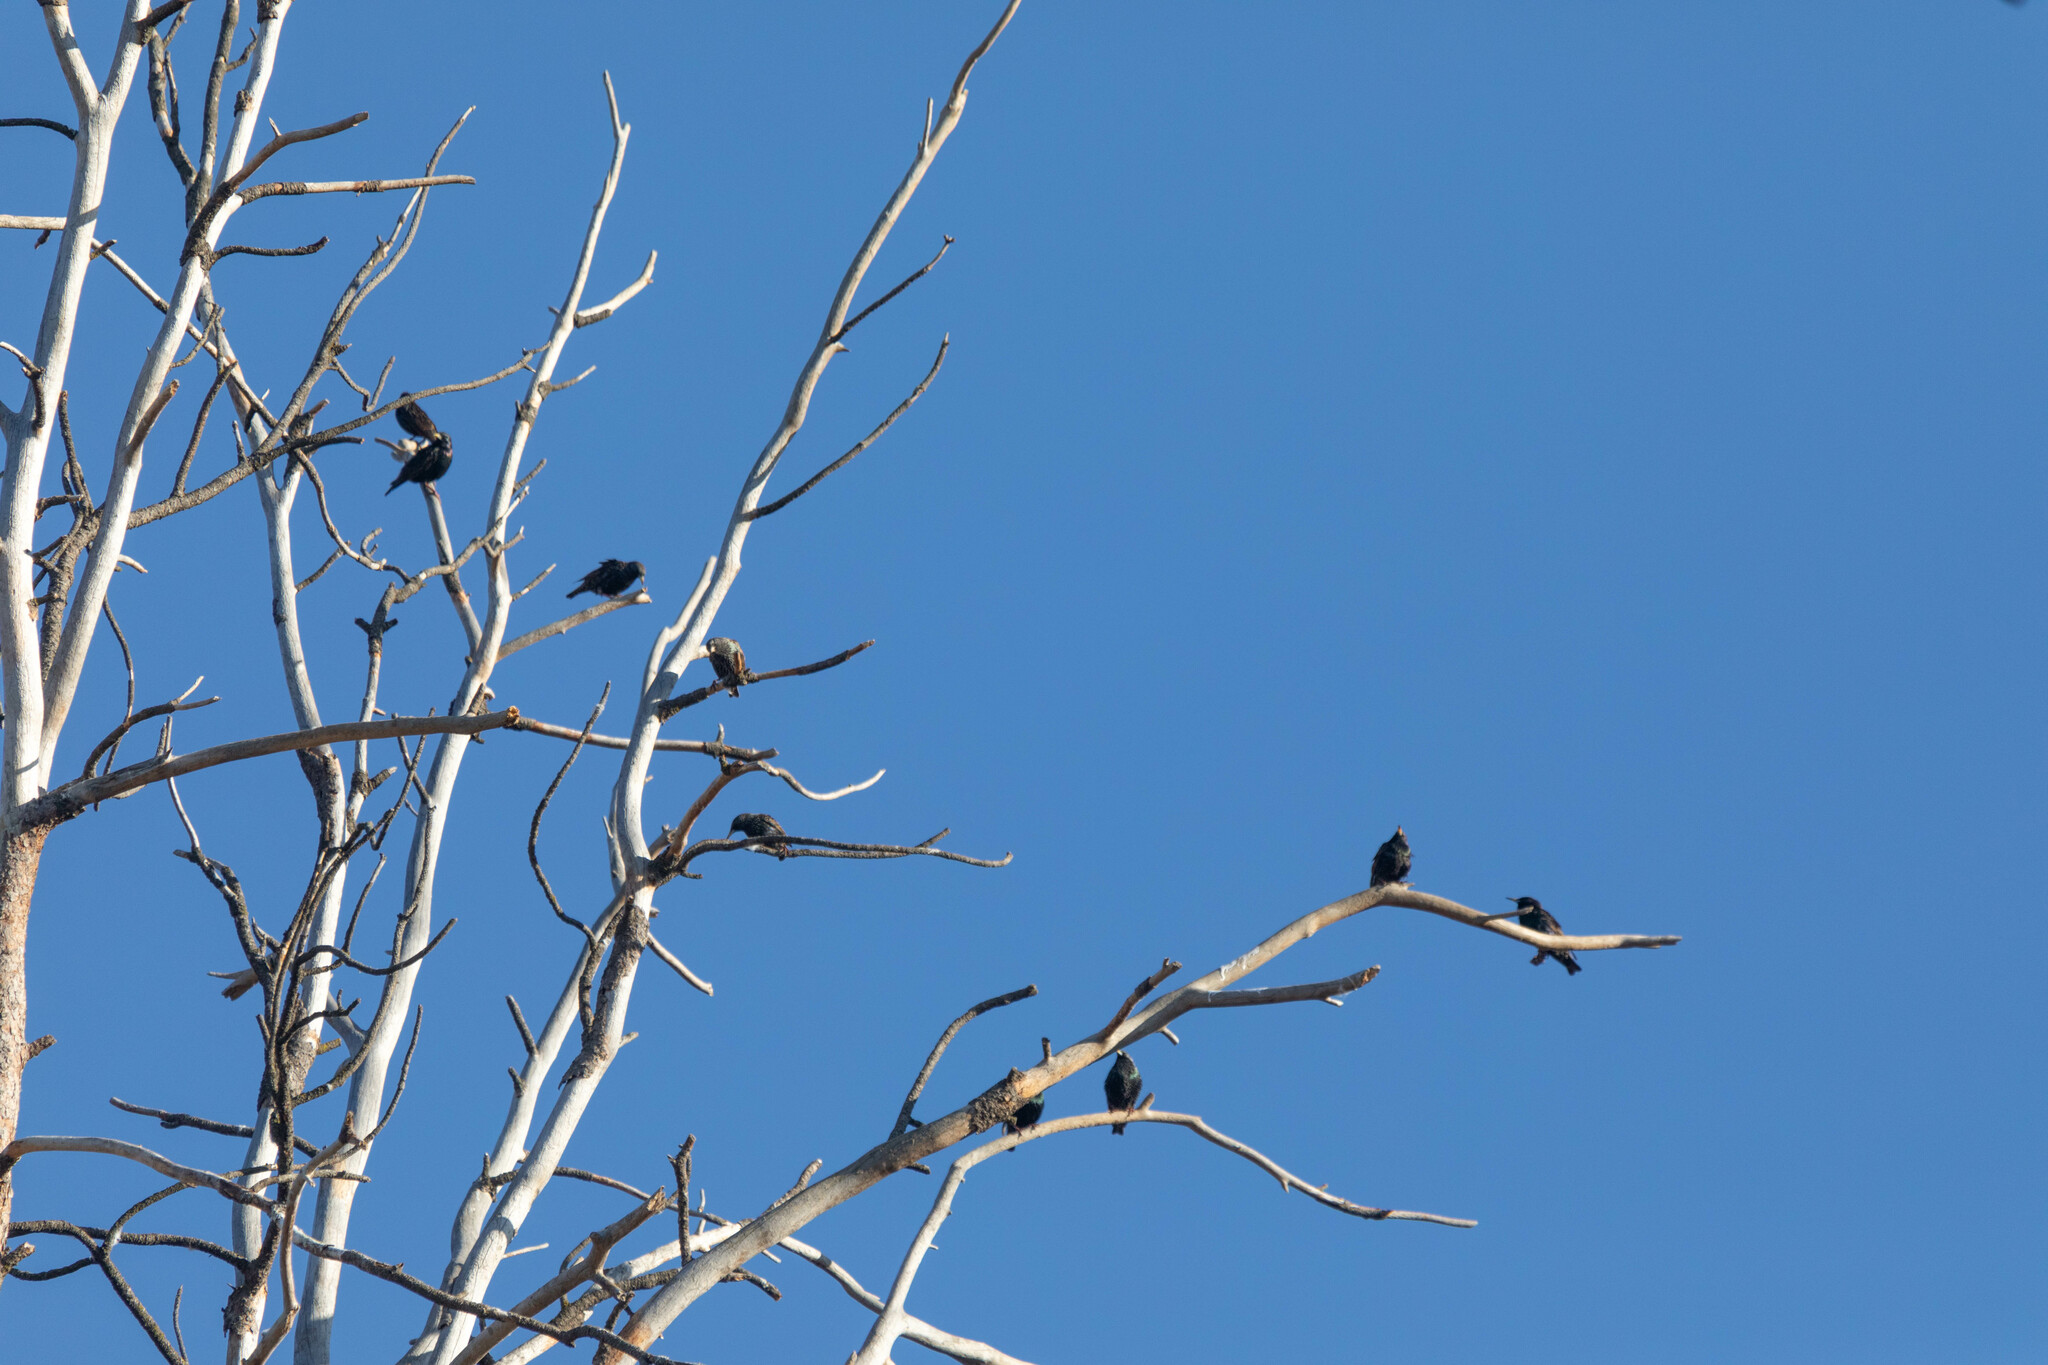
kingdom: Animalia
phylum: Chordata
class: Aves
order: Passeriformes
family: Sturnidae
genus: Sturnus
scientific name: Sturnus vulgaris
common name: Common starling
